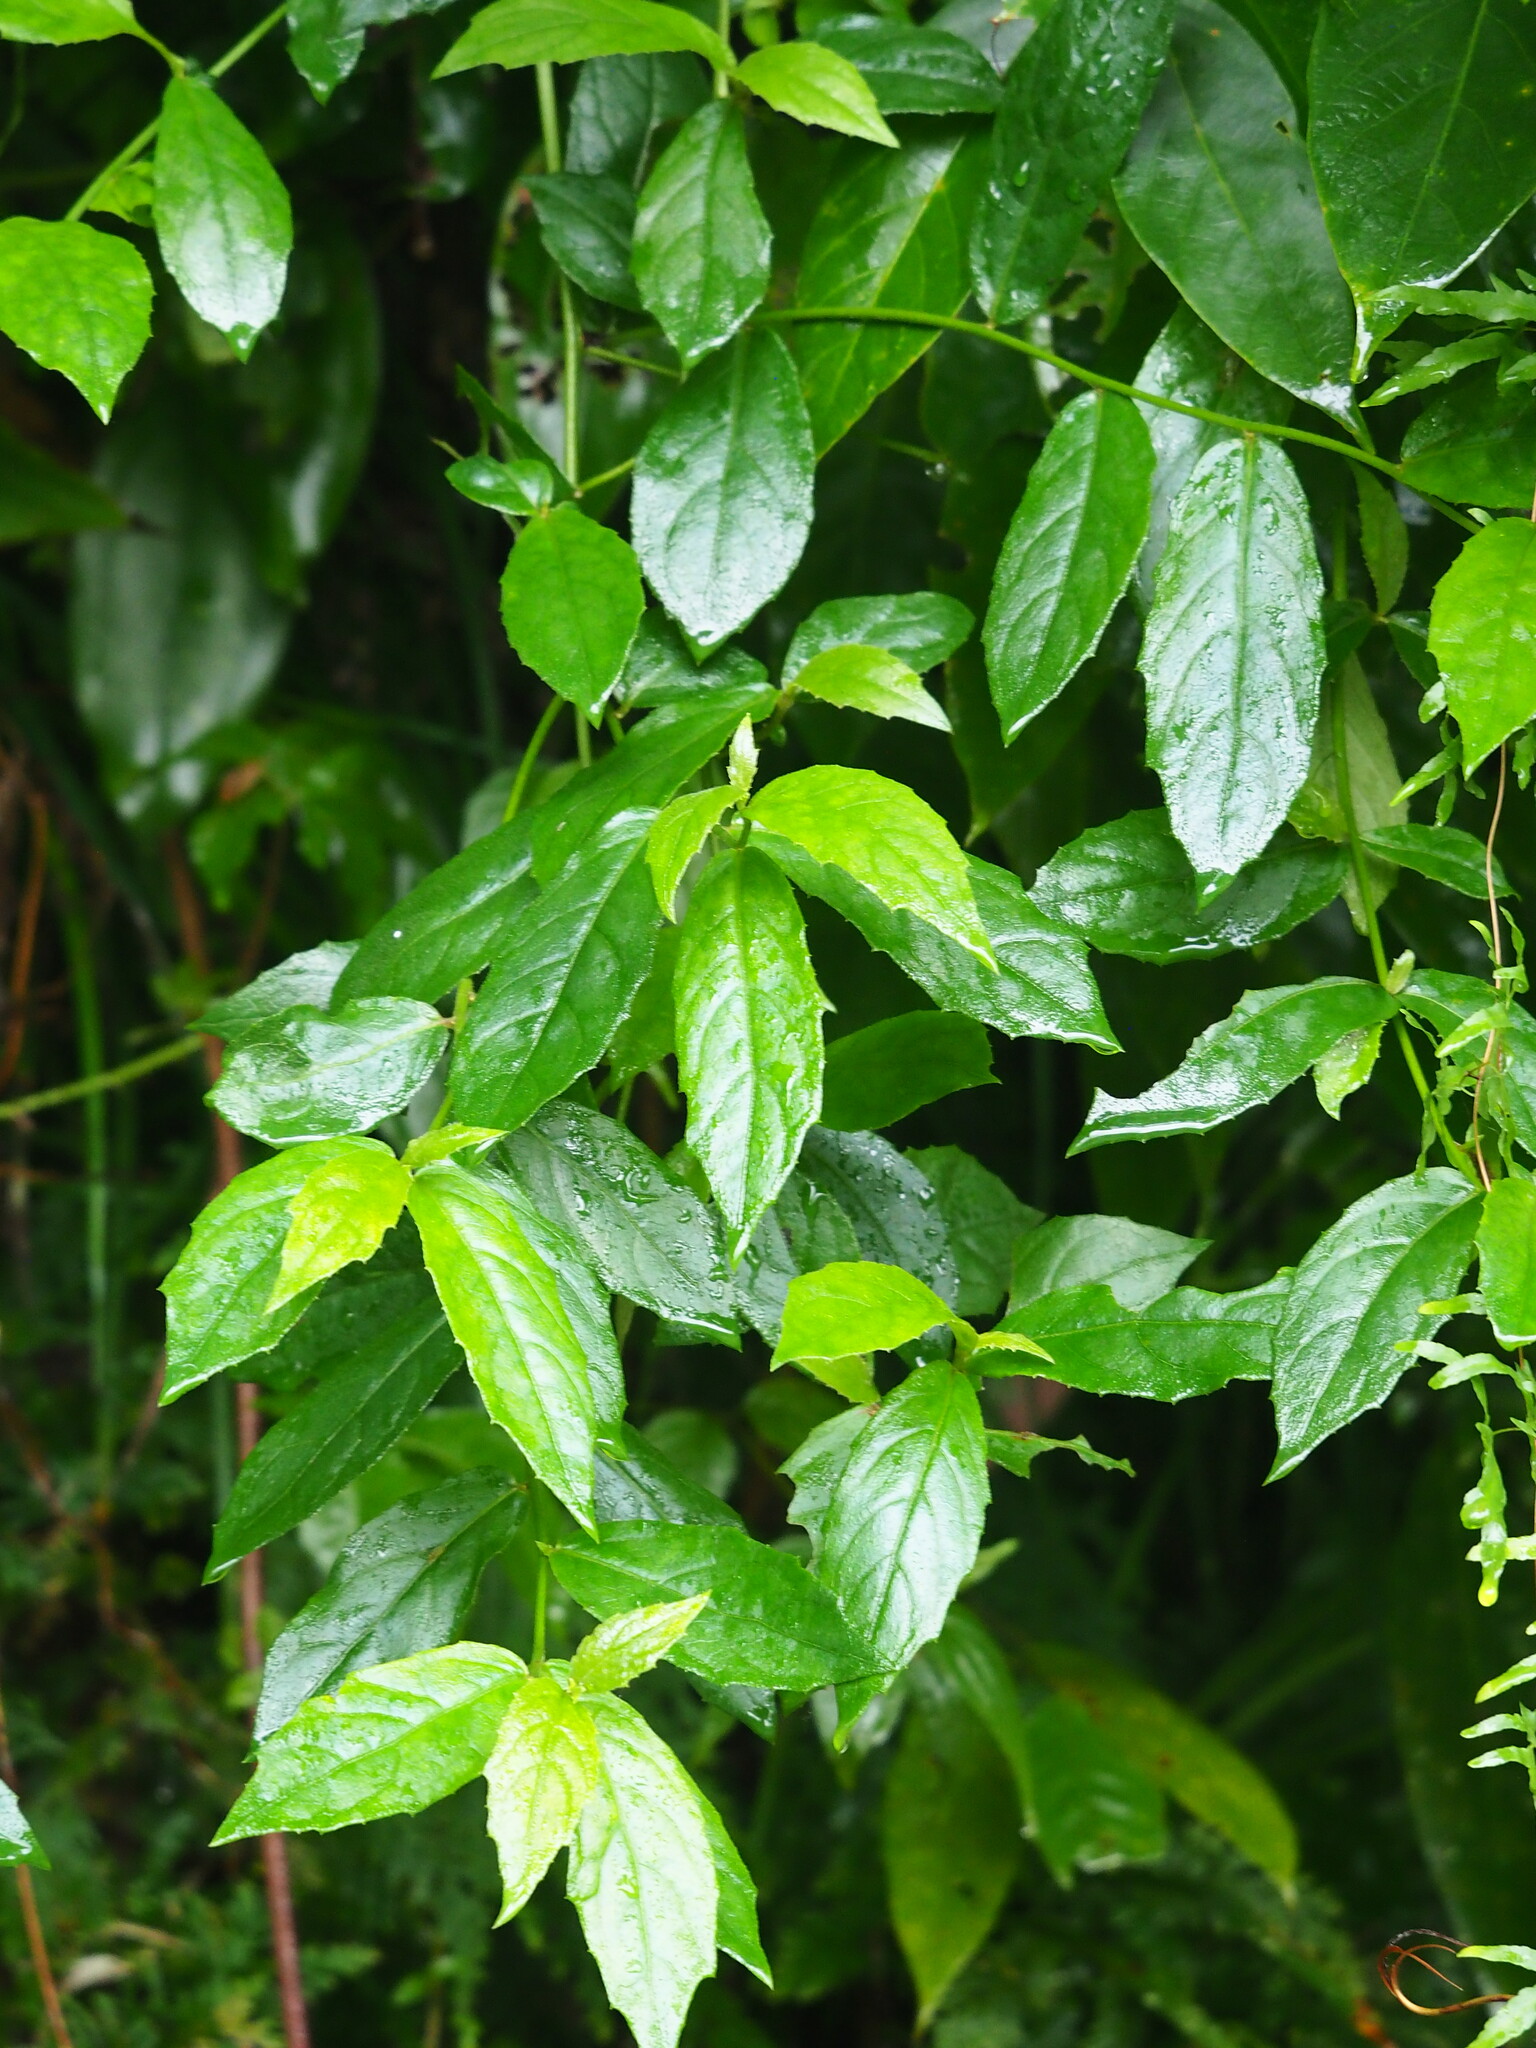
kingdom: Plantae
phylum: Tracheophyta
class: Magnoliopsida
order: Asterales
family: Asteraceae
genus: Blumea
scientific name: Blumea megacephala
